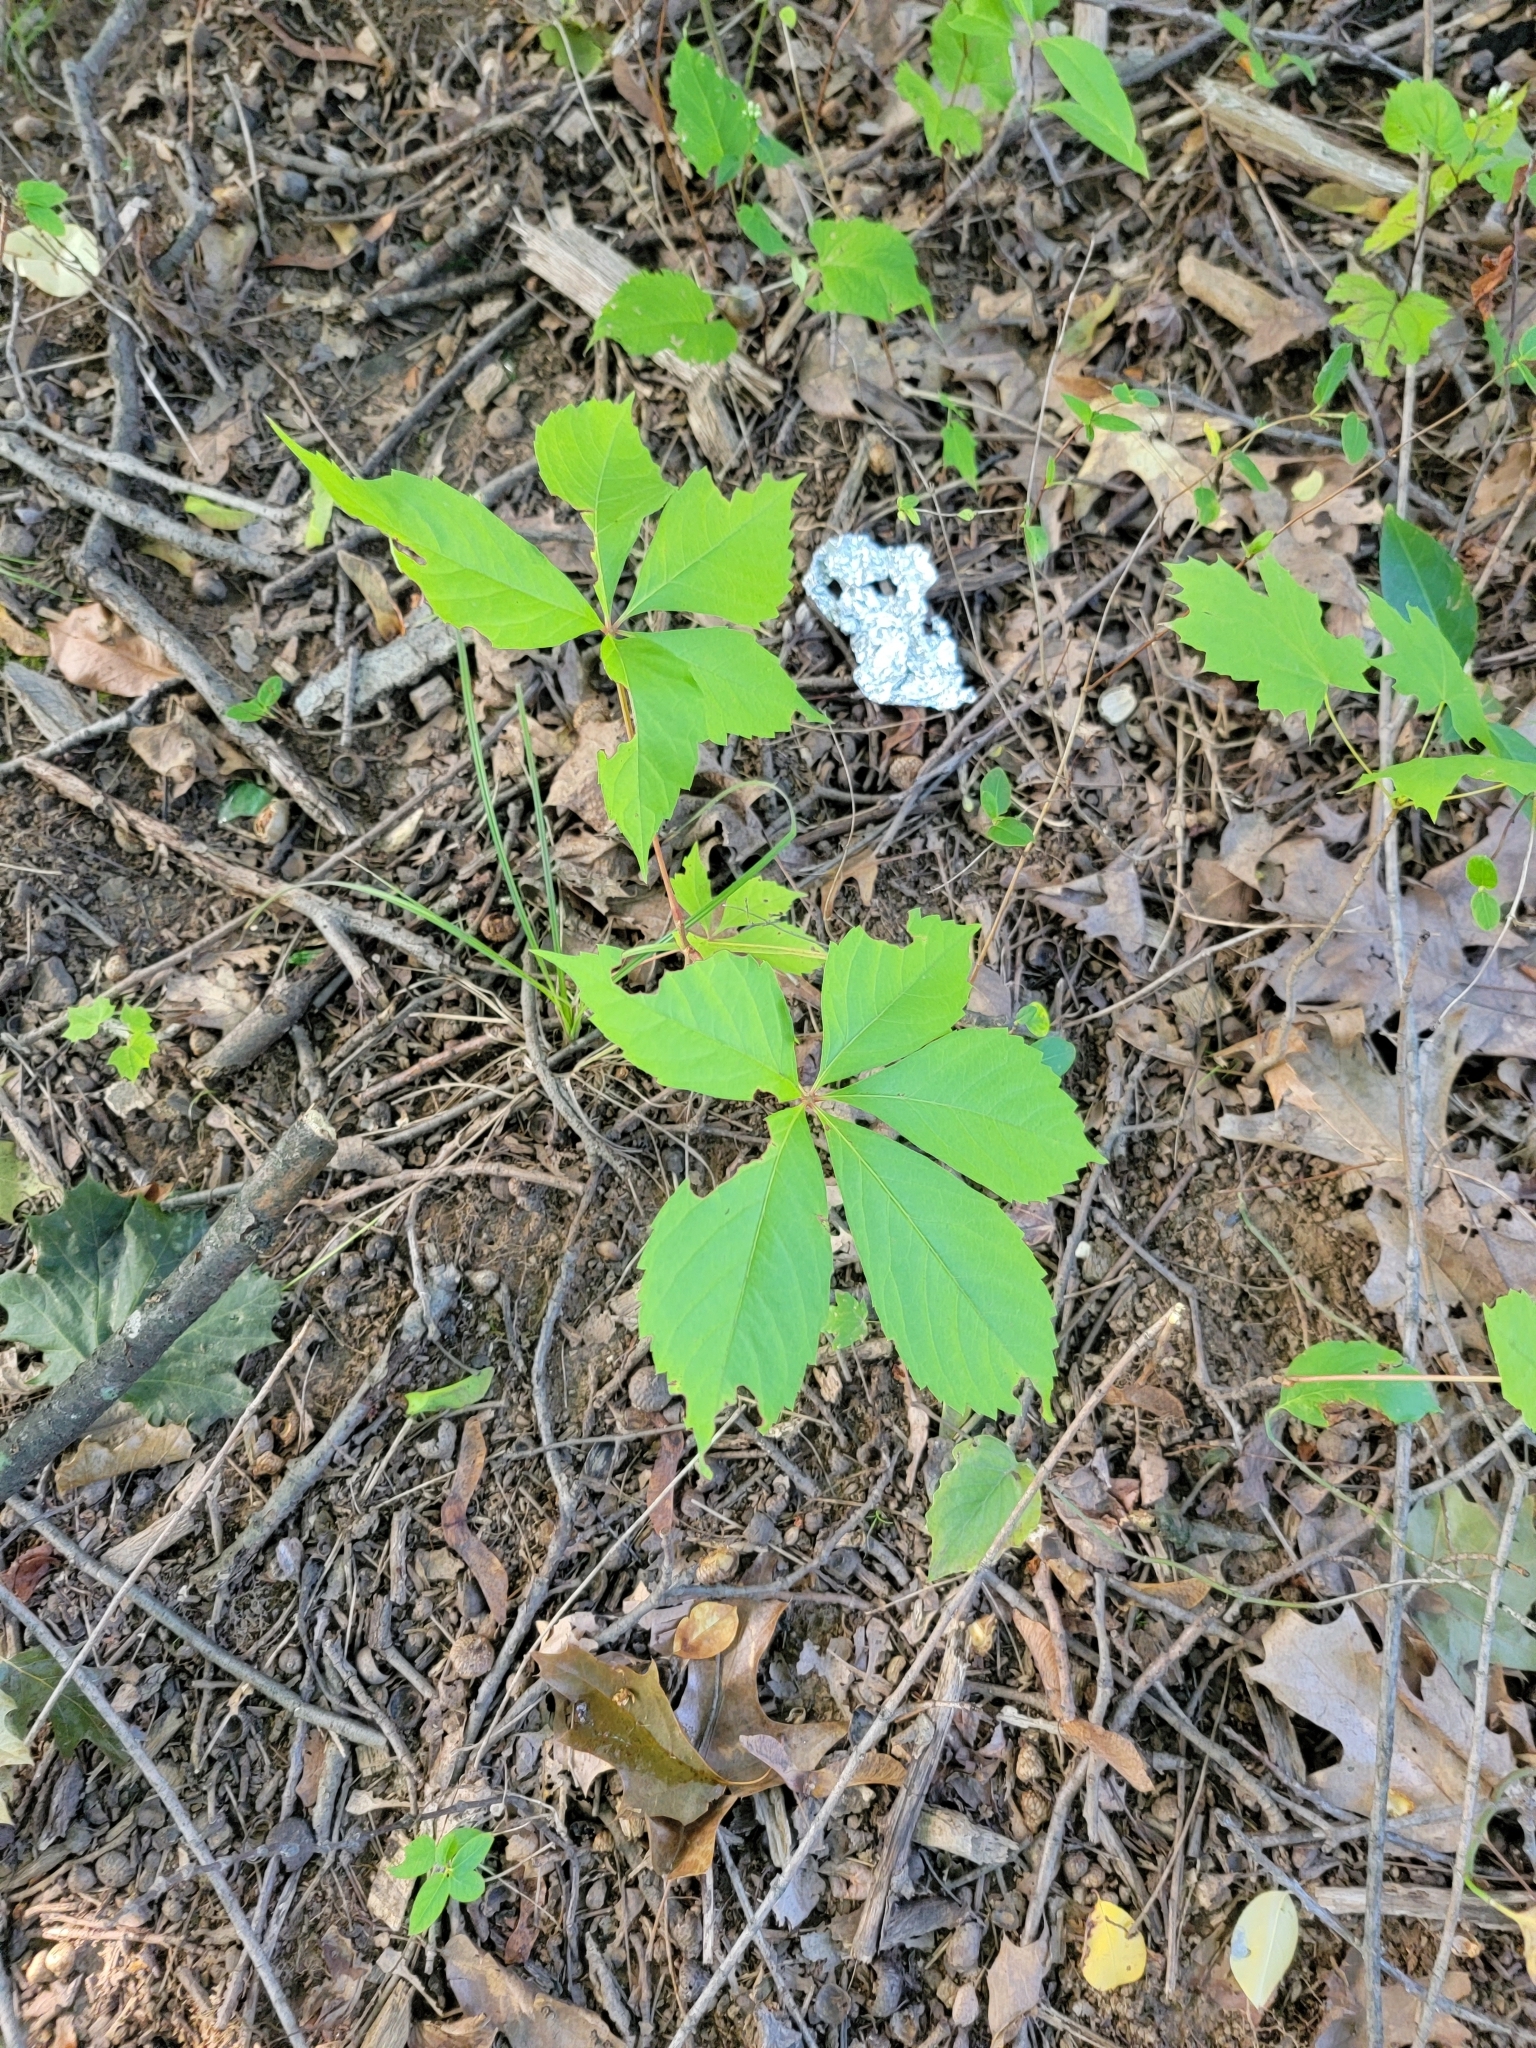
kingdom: Plantae
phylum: Tracheophyta
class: Magnoliopsida
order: Vitales
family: Vitaceae
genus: Parthenocissus
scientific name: Parthenocissus quinquefolia
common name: Virginia-creeper
